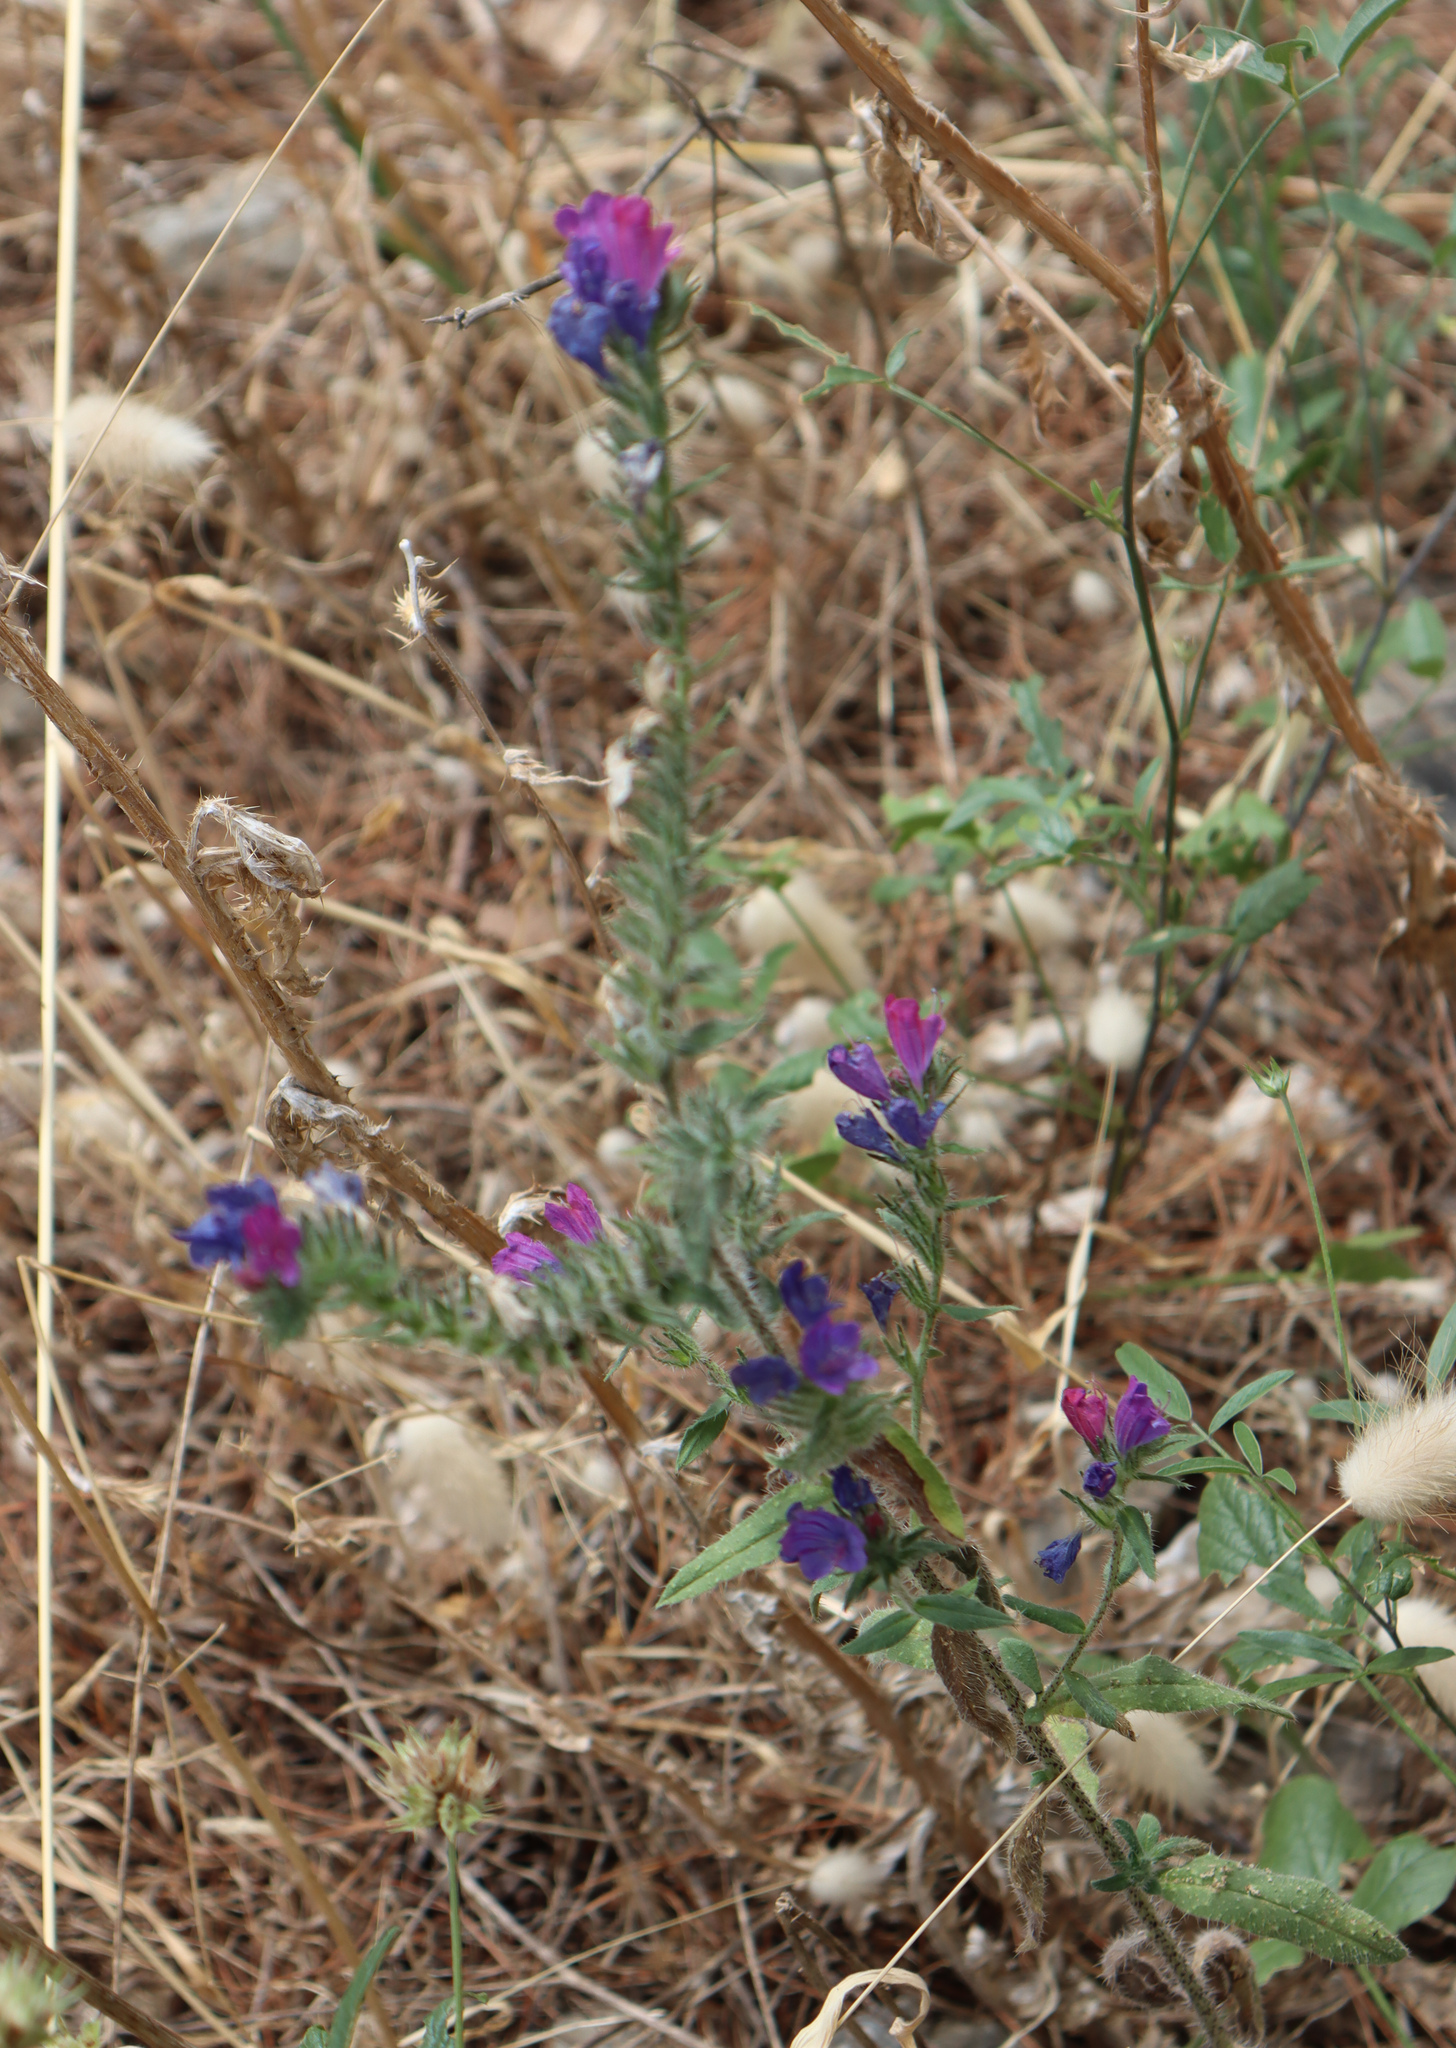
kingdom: Plantae
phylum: Tracheophyta
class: Magnoliopsida
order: Boraginales
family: Boraginaceae
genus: Echium
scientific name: Echium vulgare
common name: Common viper's bugloss
